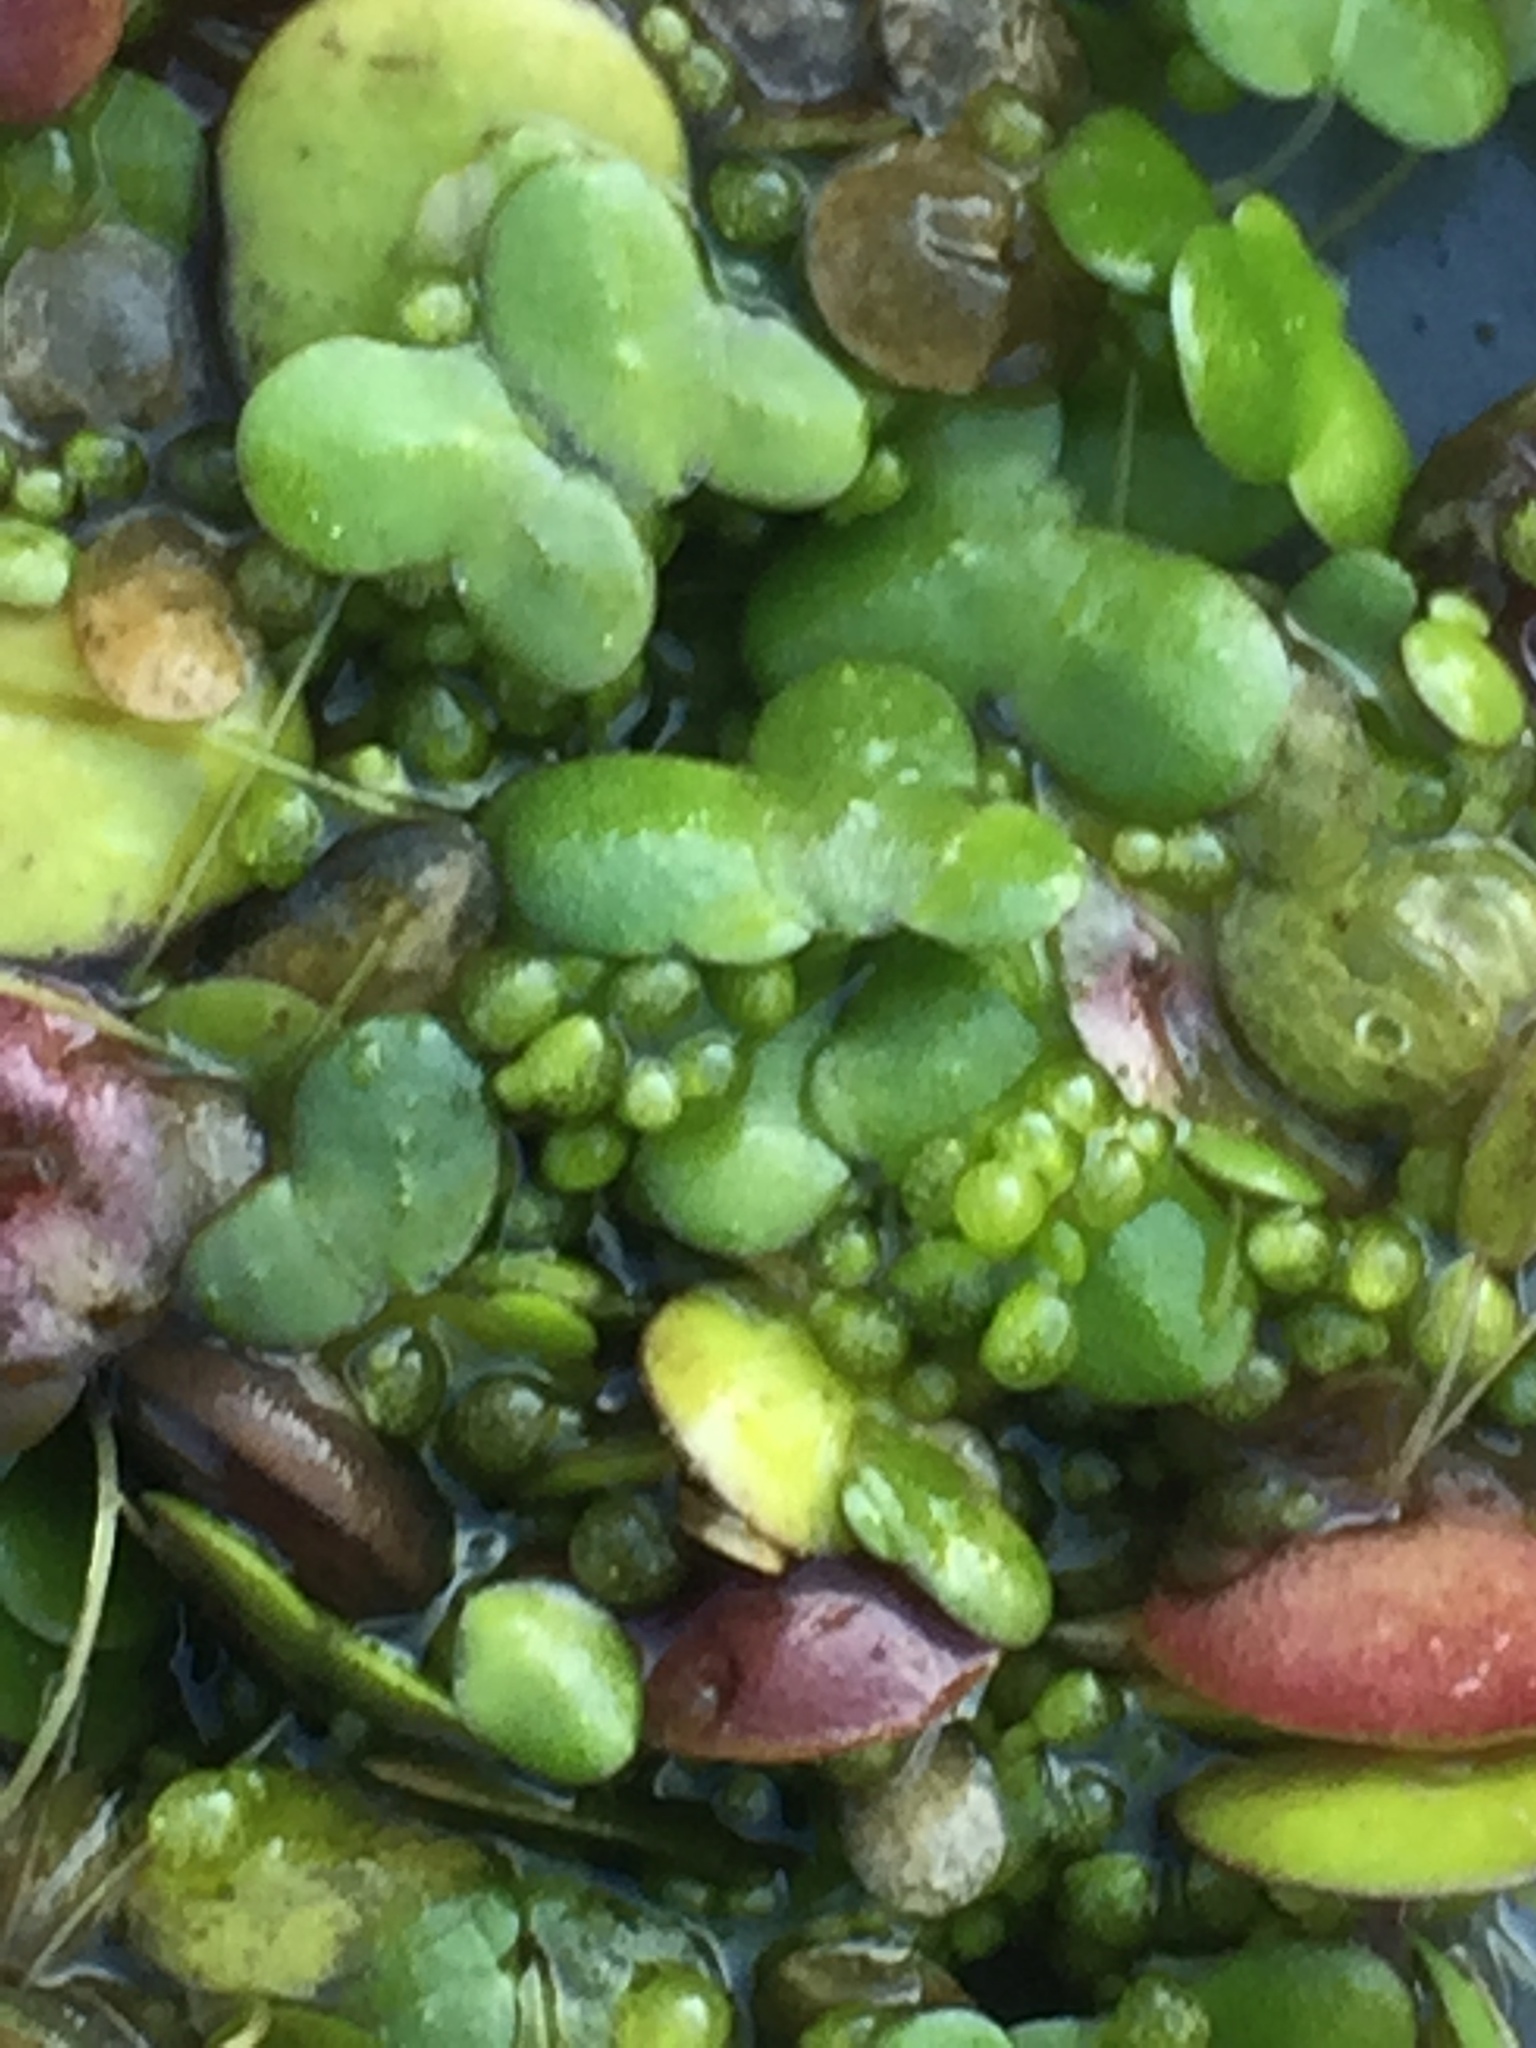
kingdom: Plantae
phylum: Tracheophyta
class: Liliopsida
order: Alismatales
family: Araceae
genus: Lemna
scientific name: Lemna minor
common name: Common duckweed
